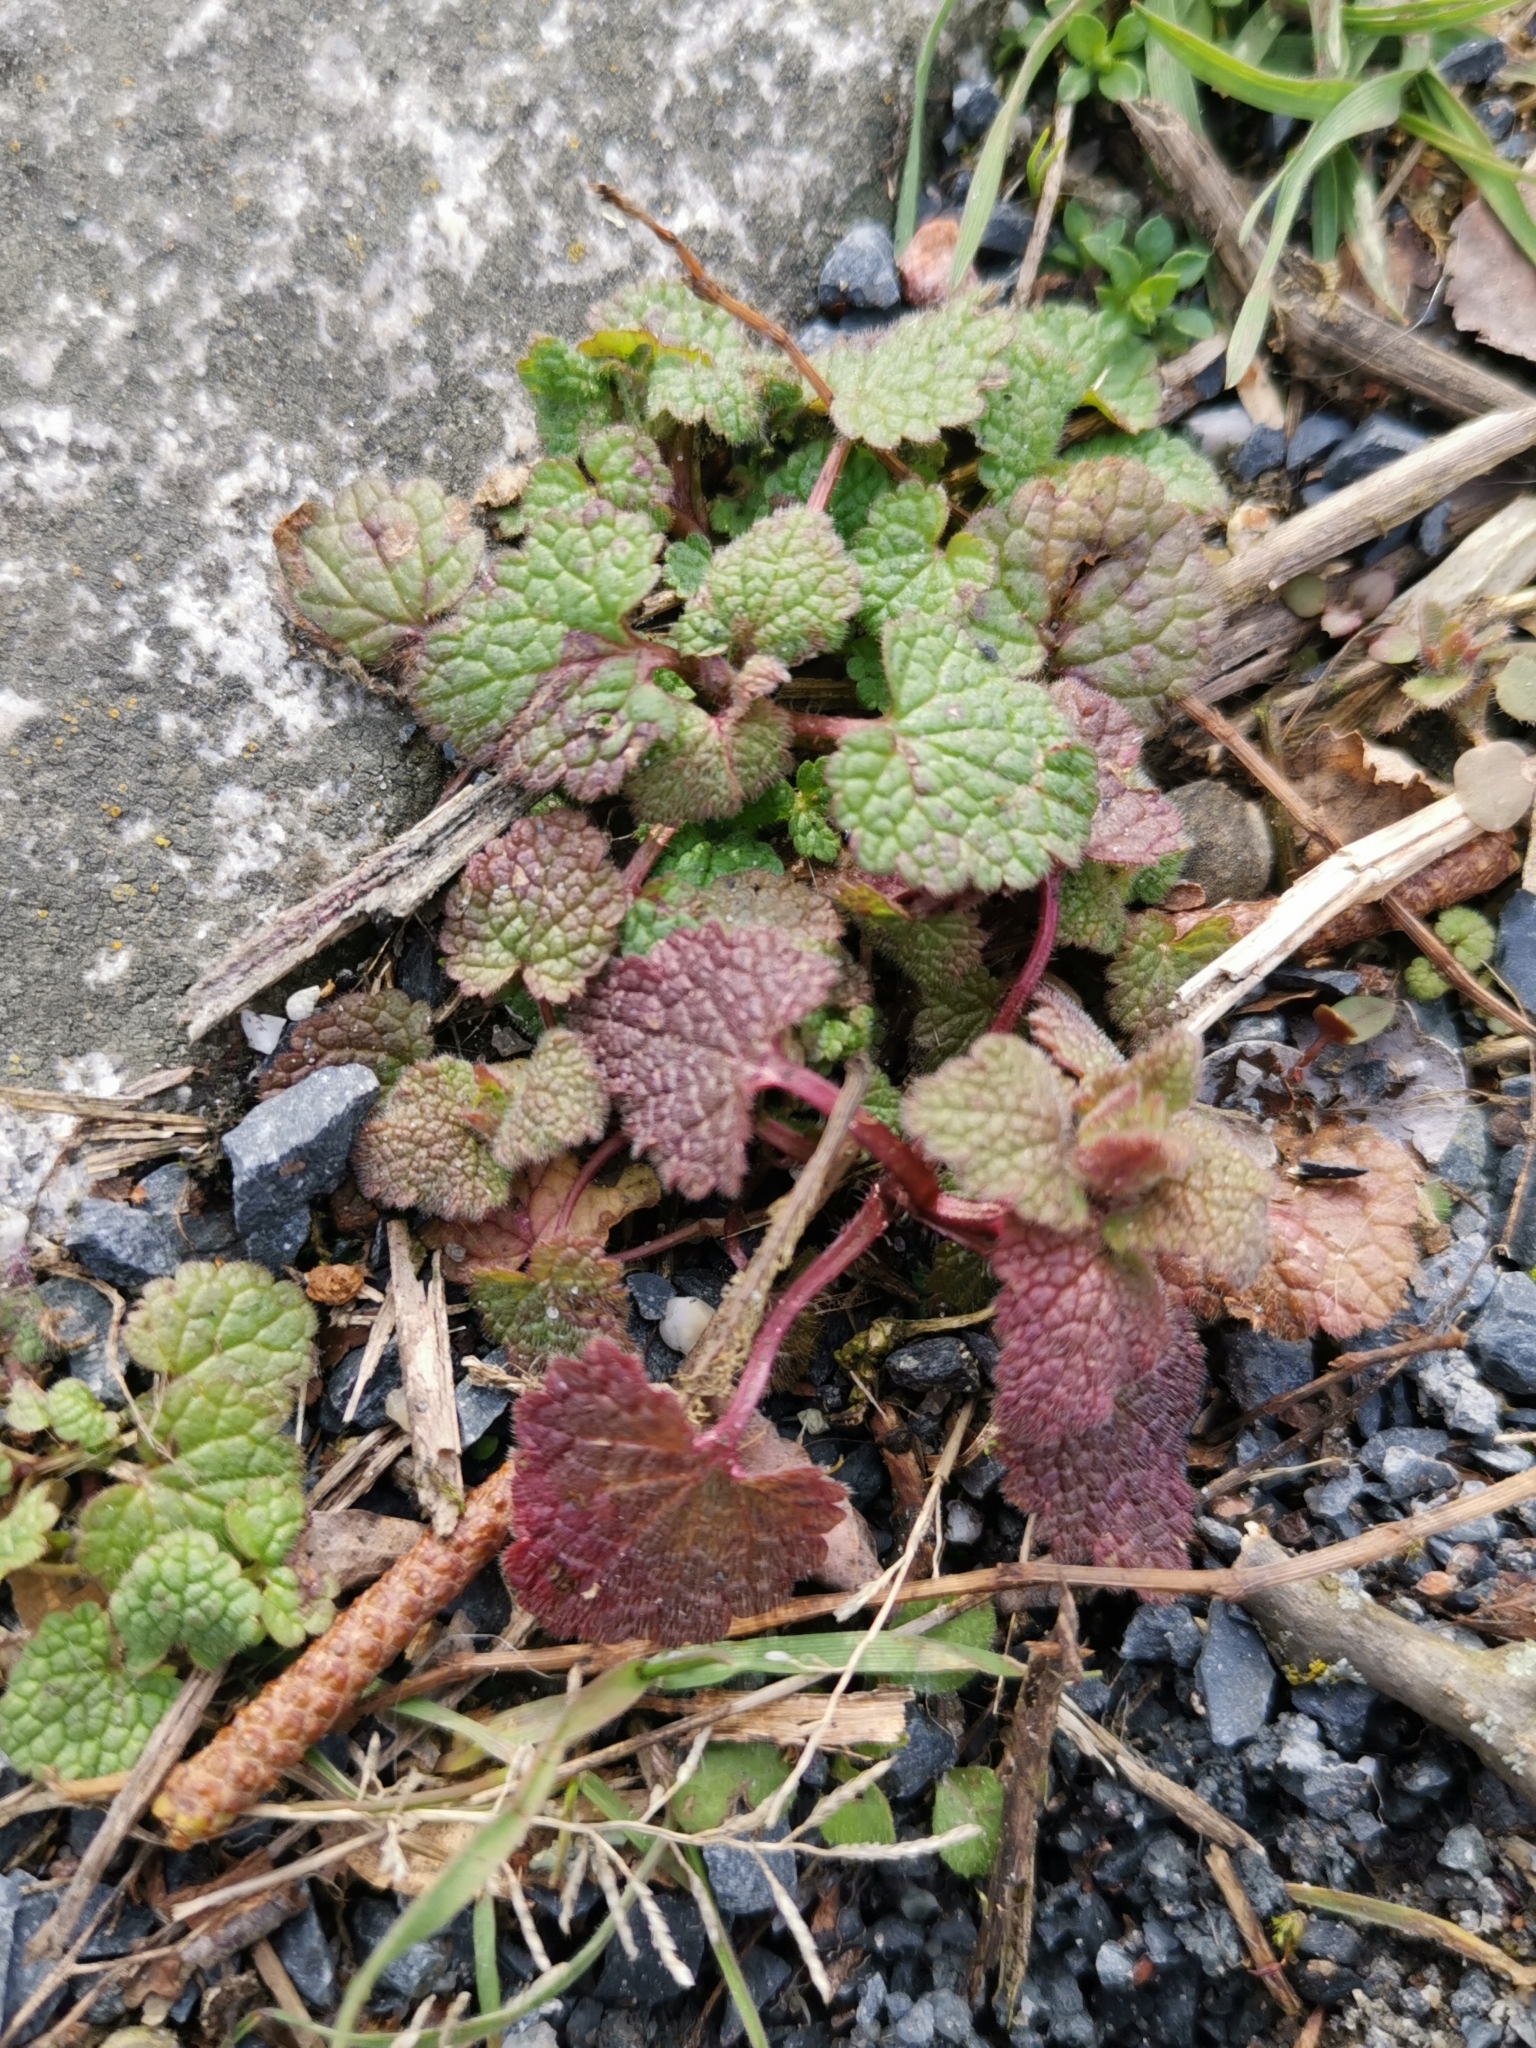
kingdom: Plantae
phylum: Tracheophyta
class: Magnoliopsida
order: Lamiales
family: Lamiaceae
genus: Lamium
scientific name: Lamium purpureum
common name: Red dead-nettle
